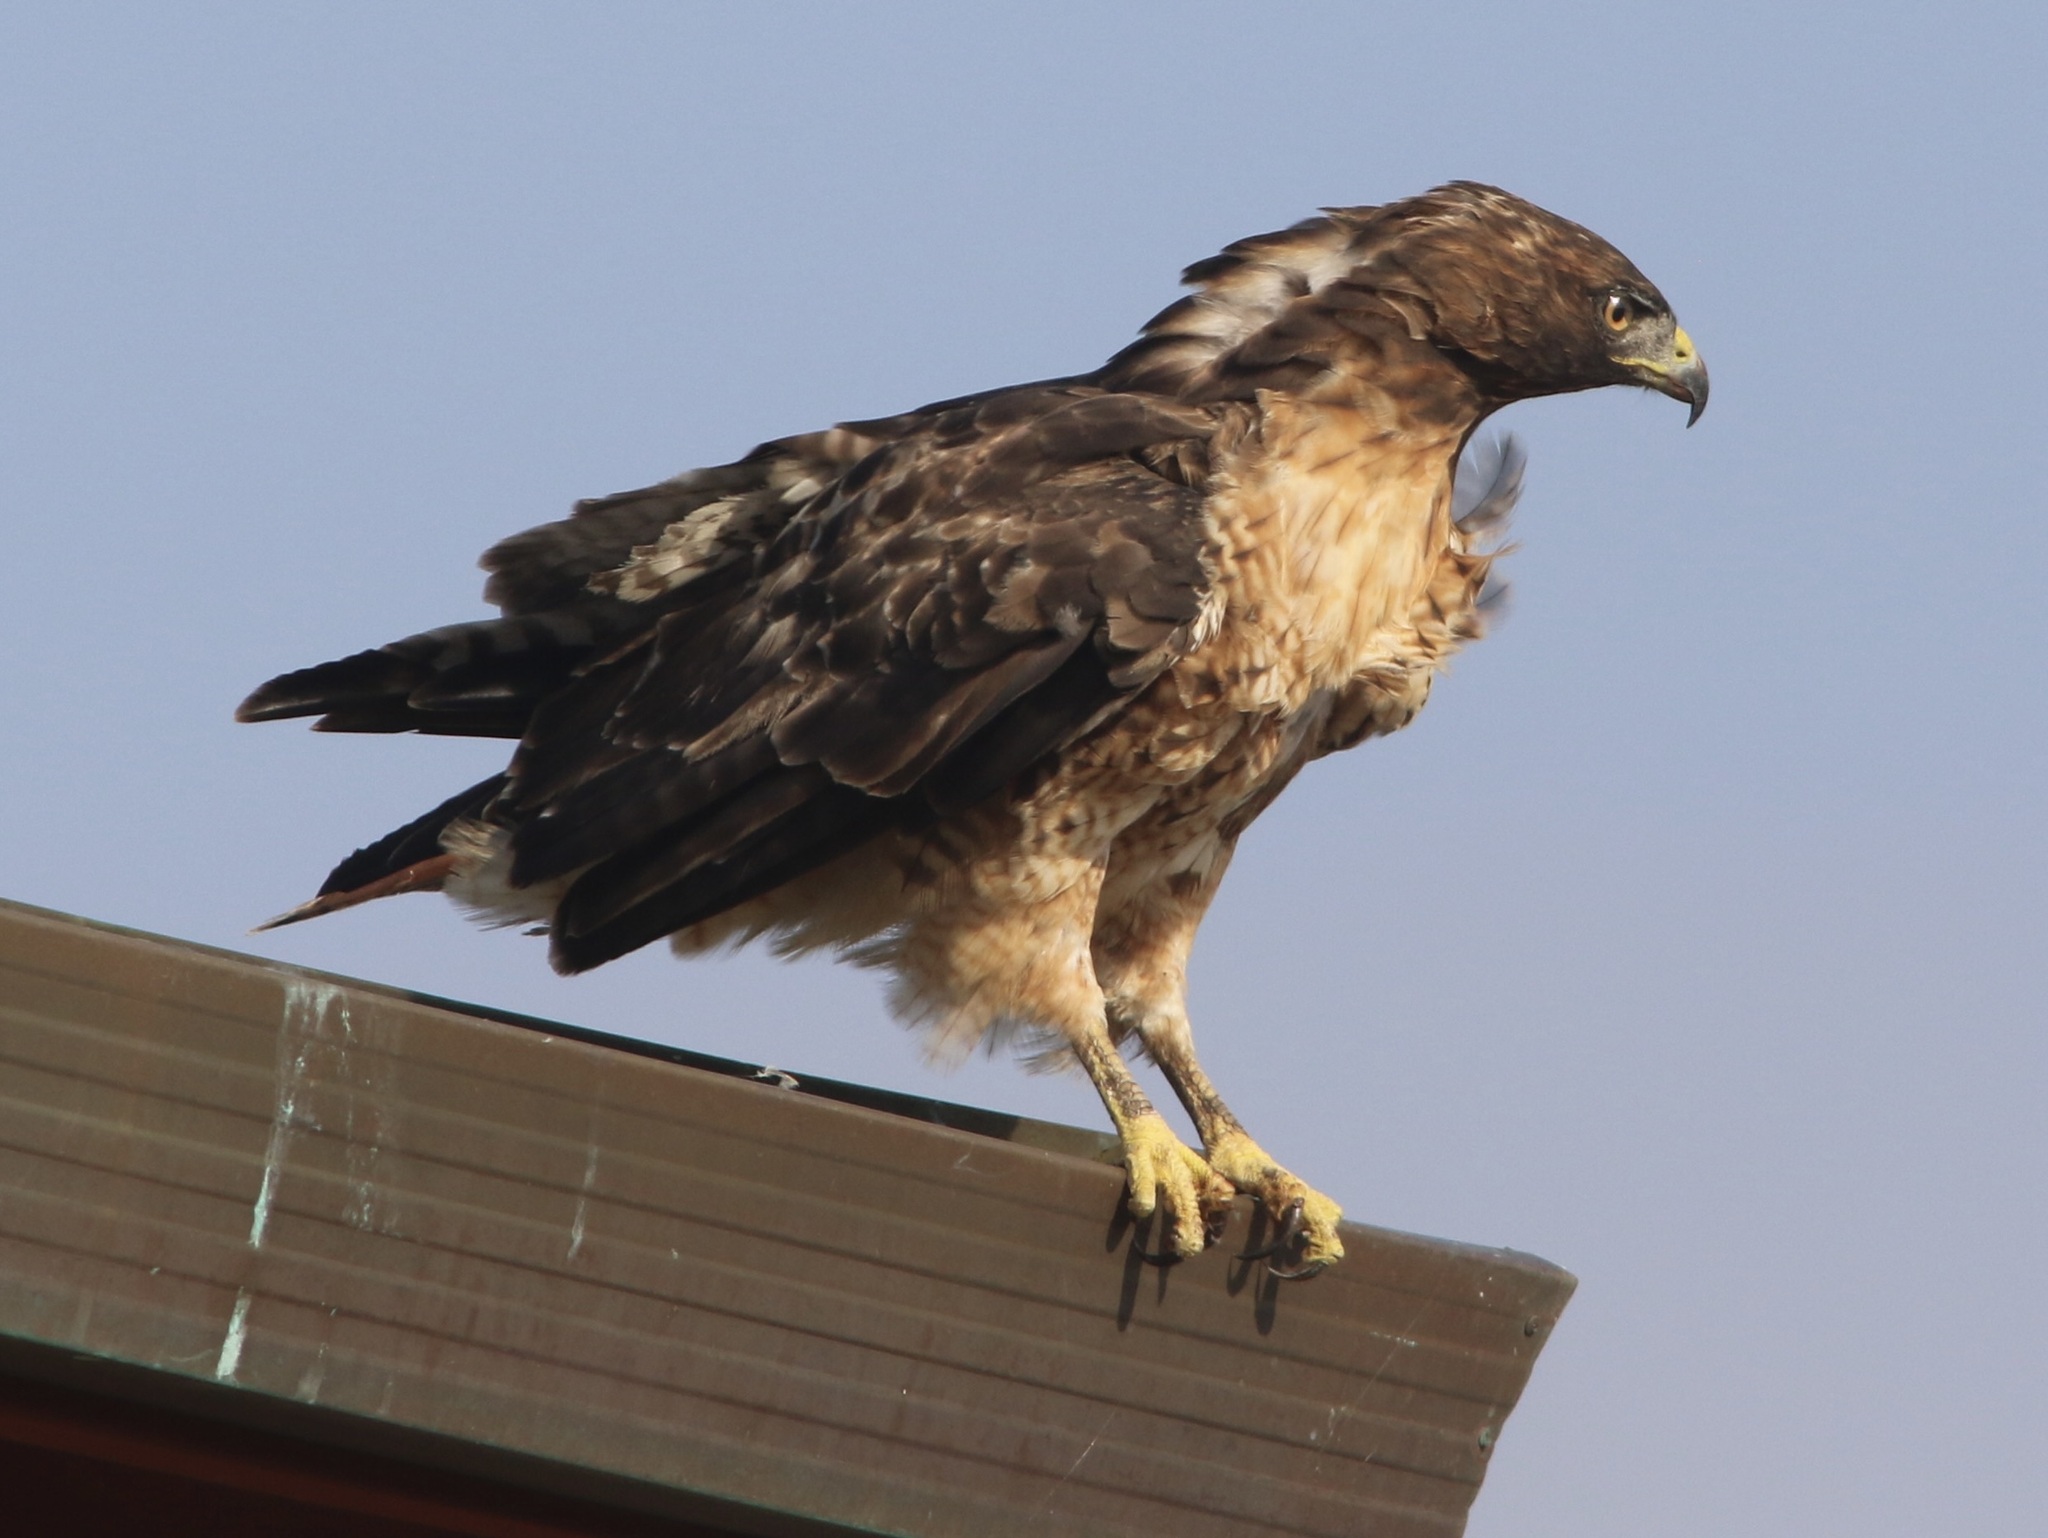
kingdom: Animalia
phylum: Chordata
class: Aves
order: Accipitriformes
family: Accipitridae
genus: Buteo
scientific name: Buteo jamaicensis
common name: Red-tailed hawk
